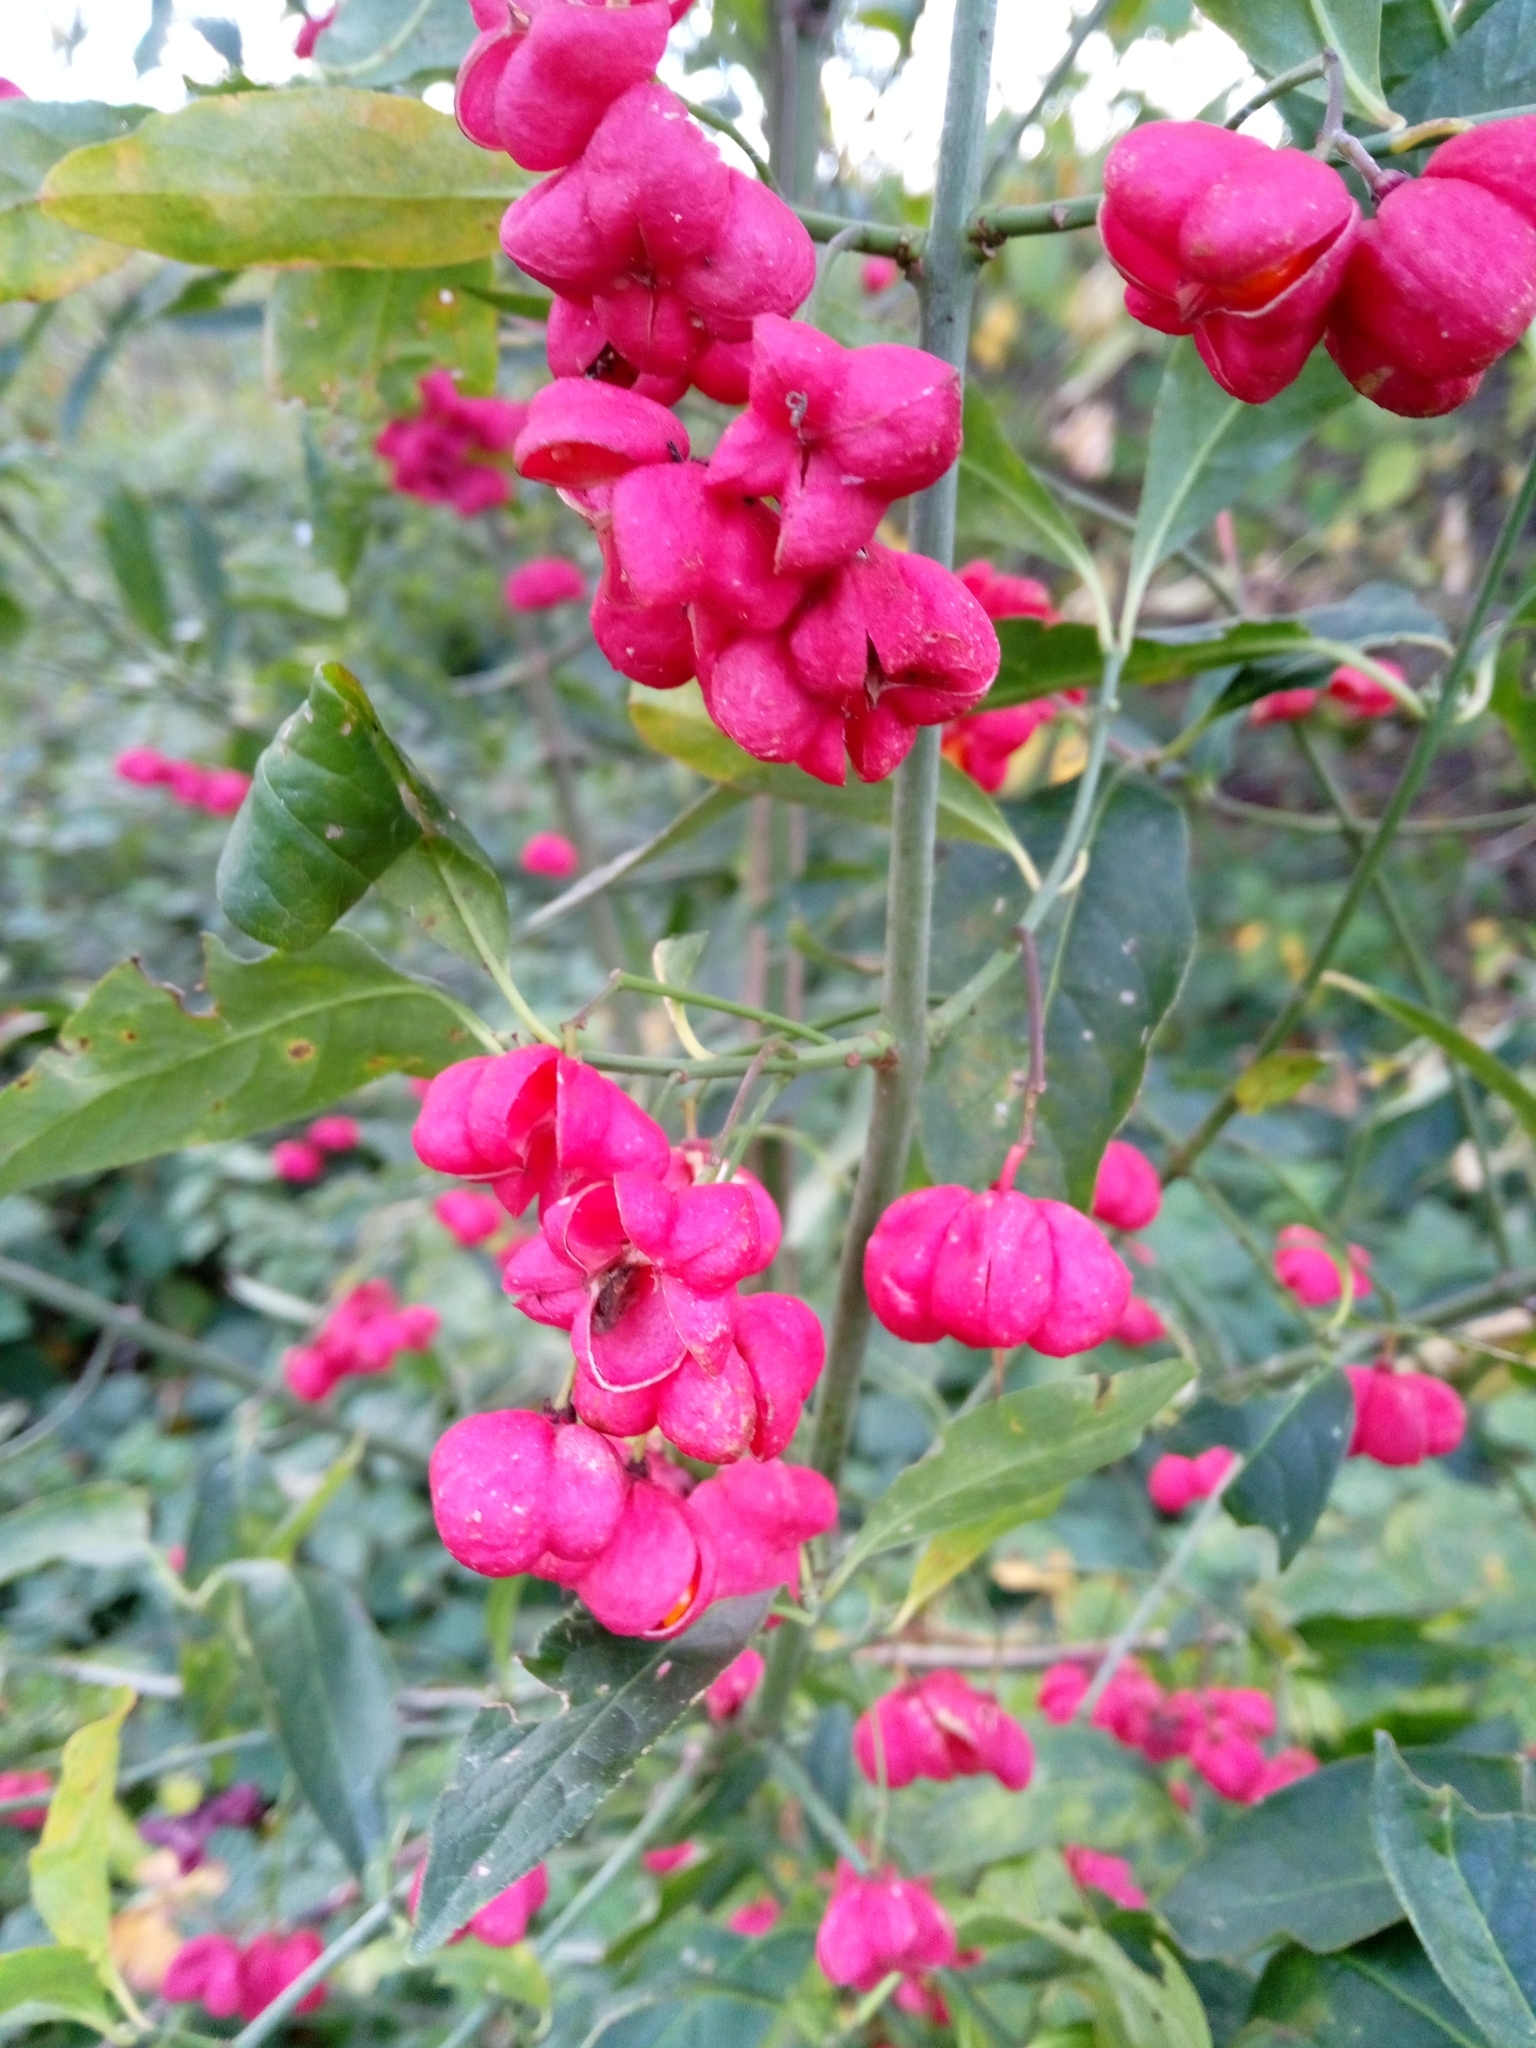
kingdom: Plantae
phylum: Tracheophyta
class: Magnoliopsida
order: Celastrales
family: Celastraceae
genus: Euonymus
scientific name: Euonymus europaeus
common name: Spindle
